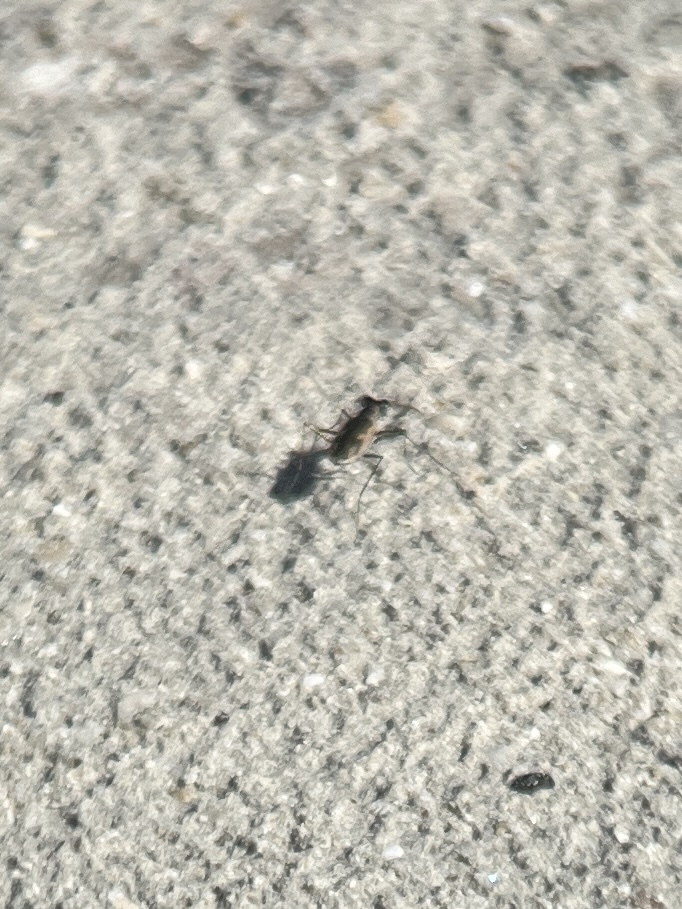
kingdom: Animalia
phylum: Arthropoda
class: Insecta
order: Coleoptera
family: Carabidae
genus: Eunota
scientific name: Eunota
